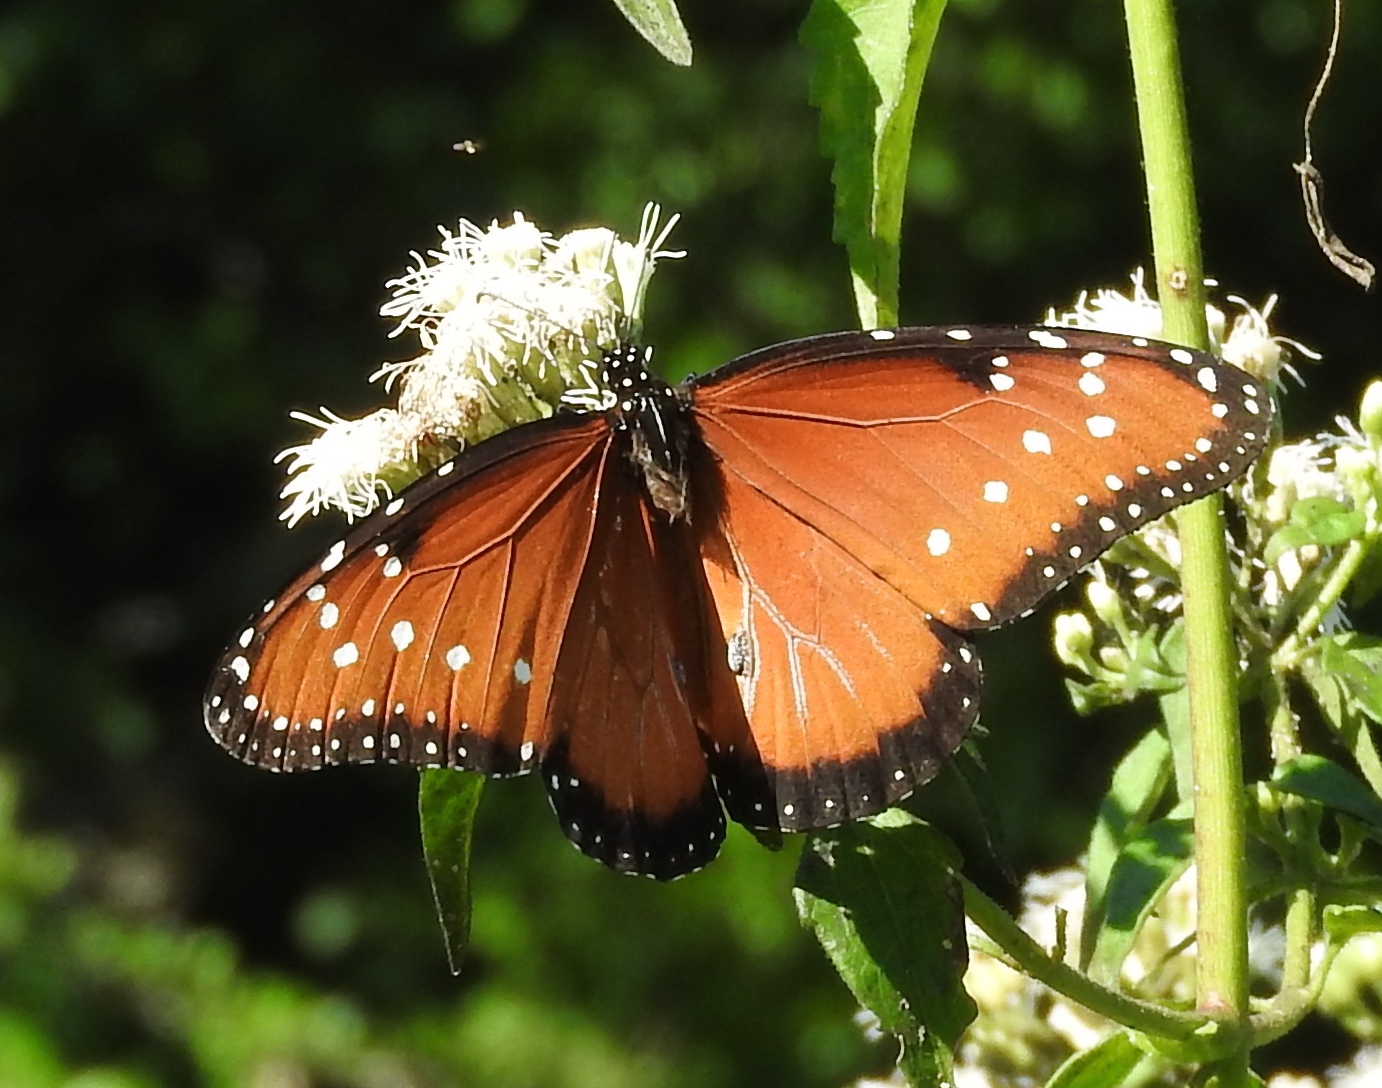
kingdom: Animalia
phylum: Arthropoda
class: Insecta
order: Lepidoptera
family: Nymphalidae
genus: Danaus
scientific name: Danaus gilippus
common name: Queen
